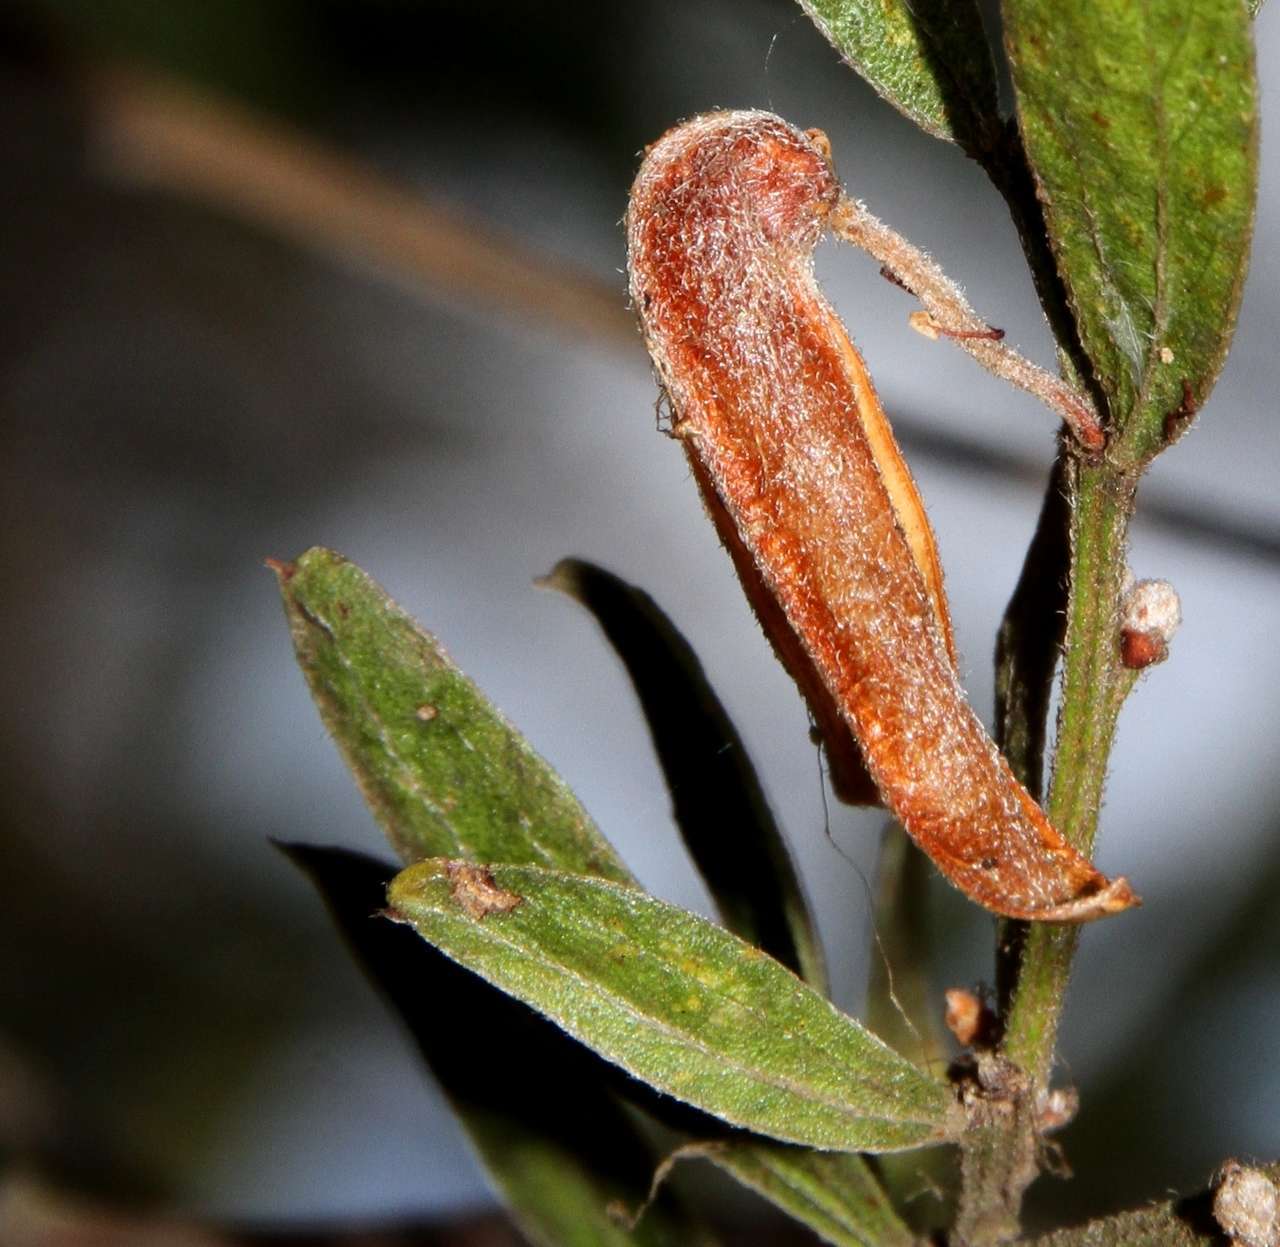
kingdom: Plantae
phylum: Tracheophyta
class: Magnoliopsida
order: Fabales
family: Fabaceae
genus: Acacia
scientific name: Acacia rostriformis
